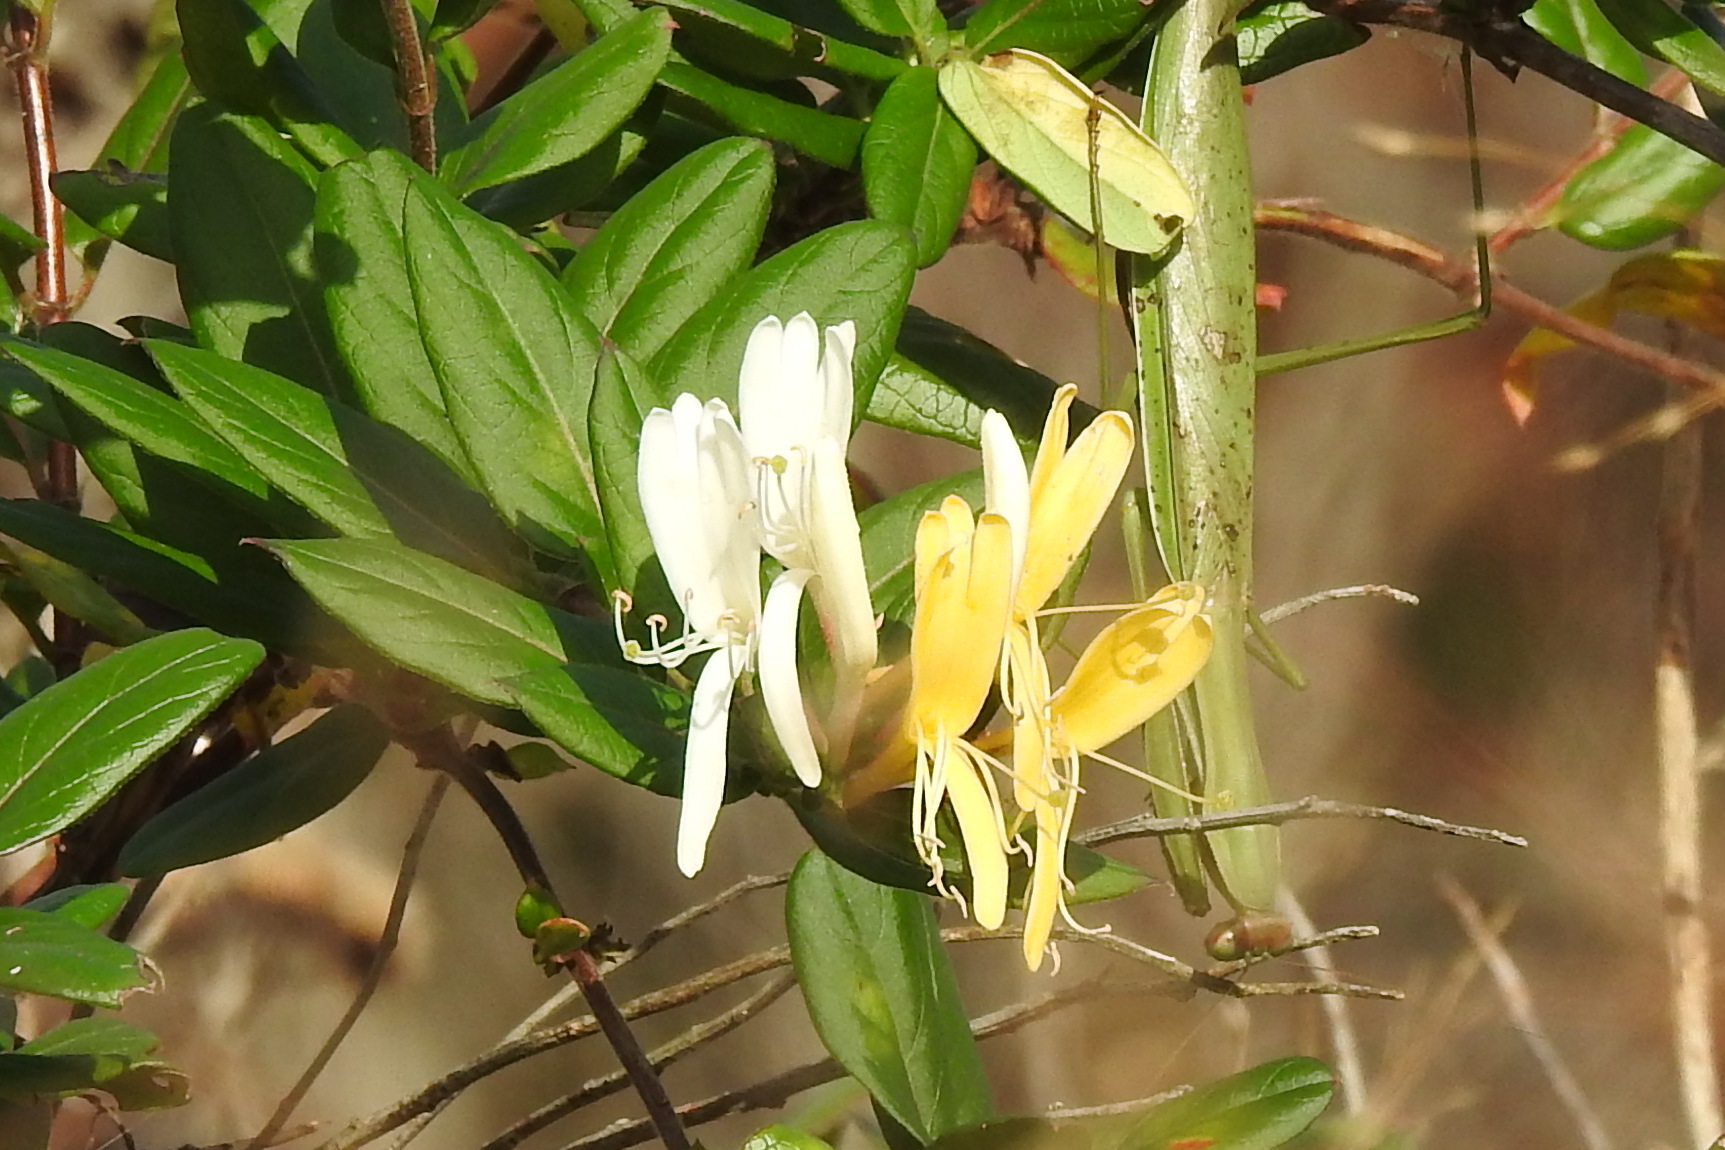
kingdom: Plantae
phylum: Tracheophyta
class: Magnoliopsida
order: Dipsacales
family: Caprifoliaceae
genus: Lonicera
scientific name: Lonicera japonica
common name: Japanese honeysuckle
